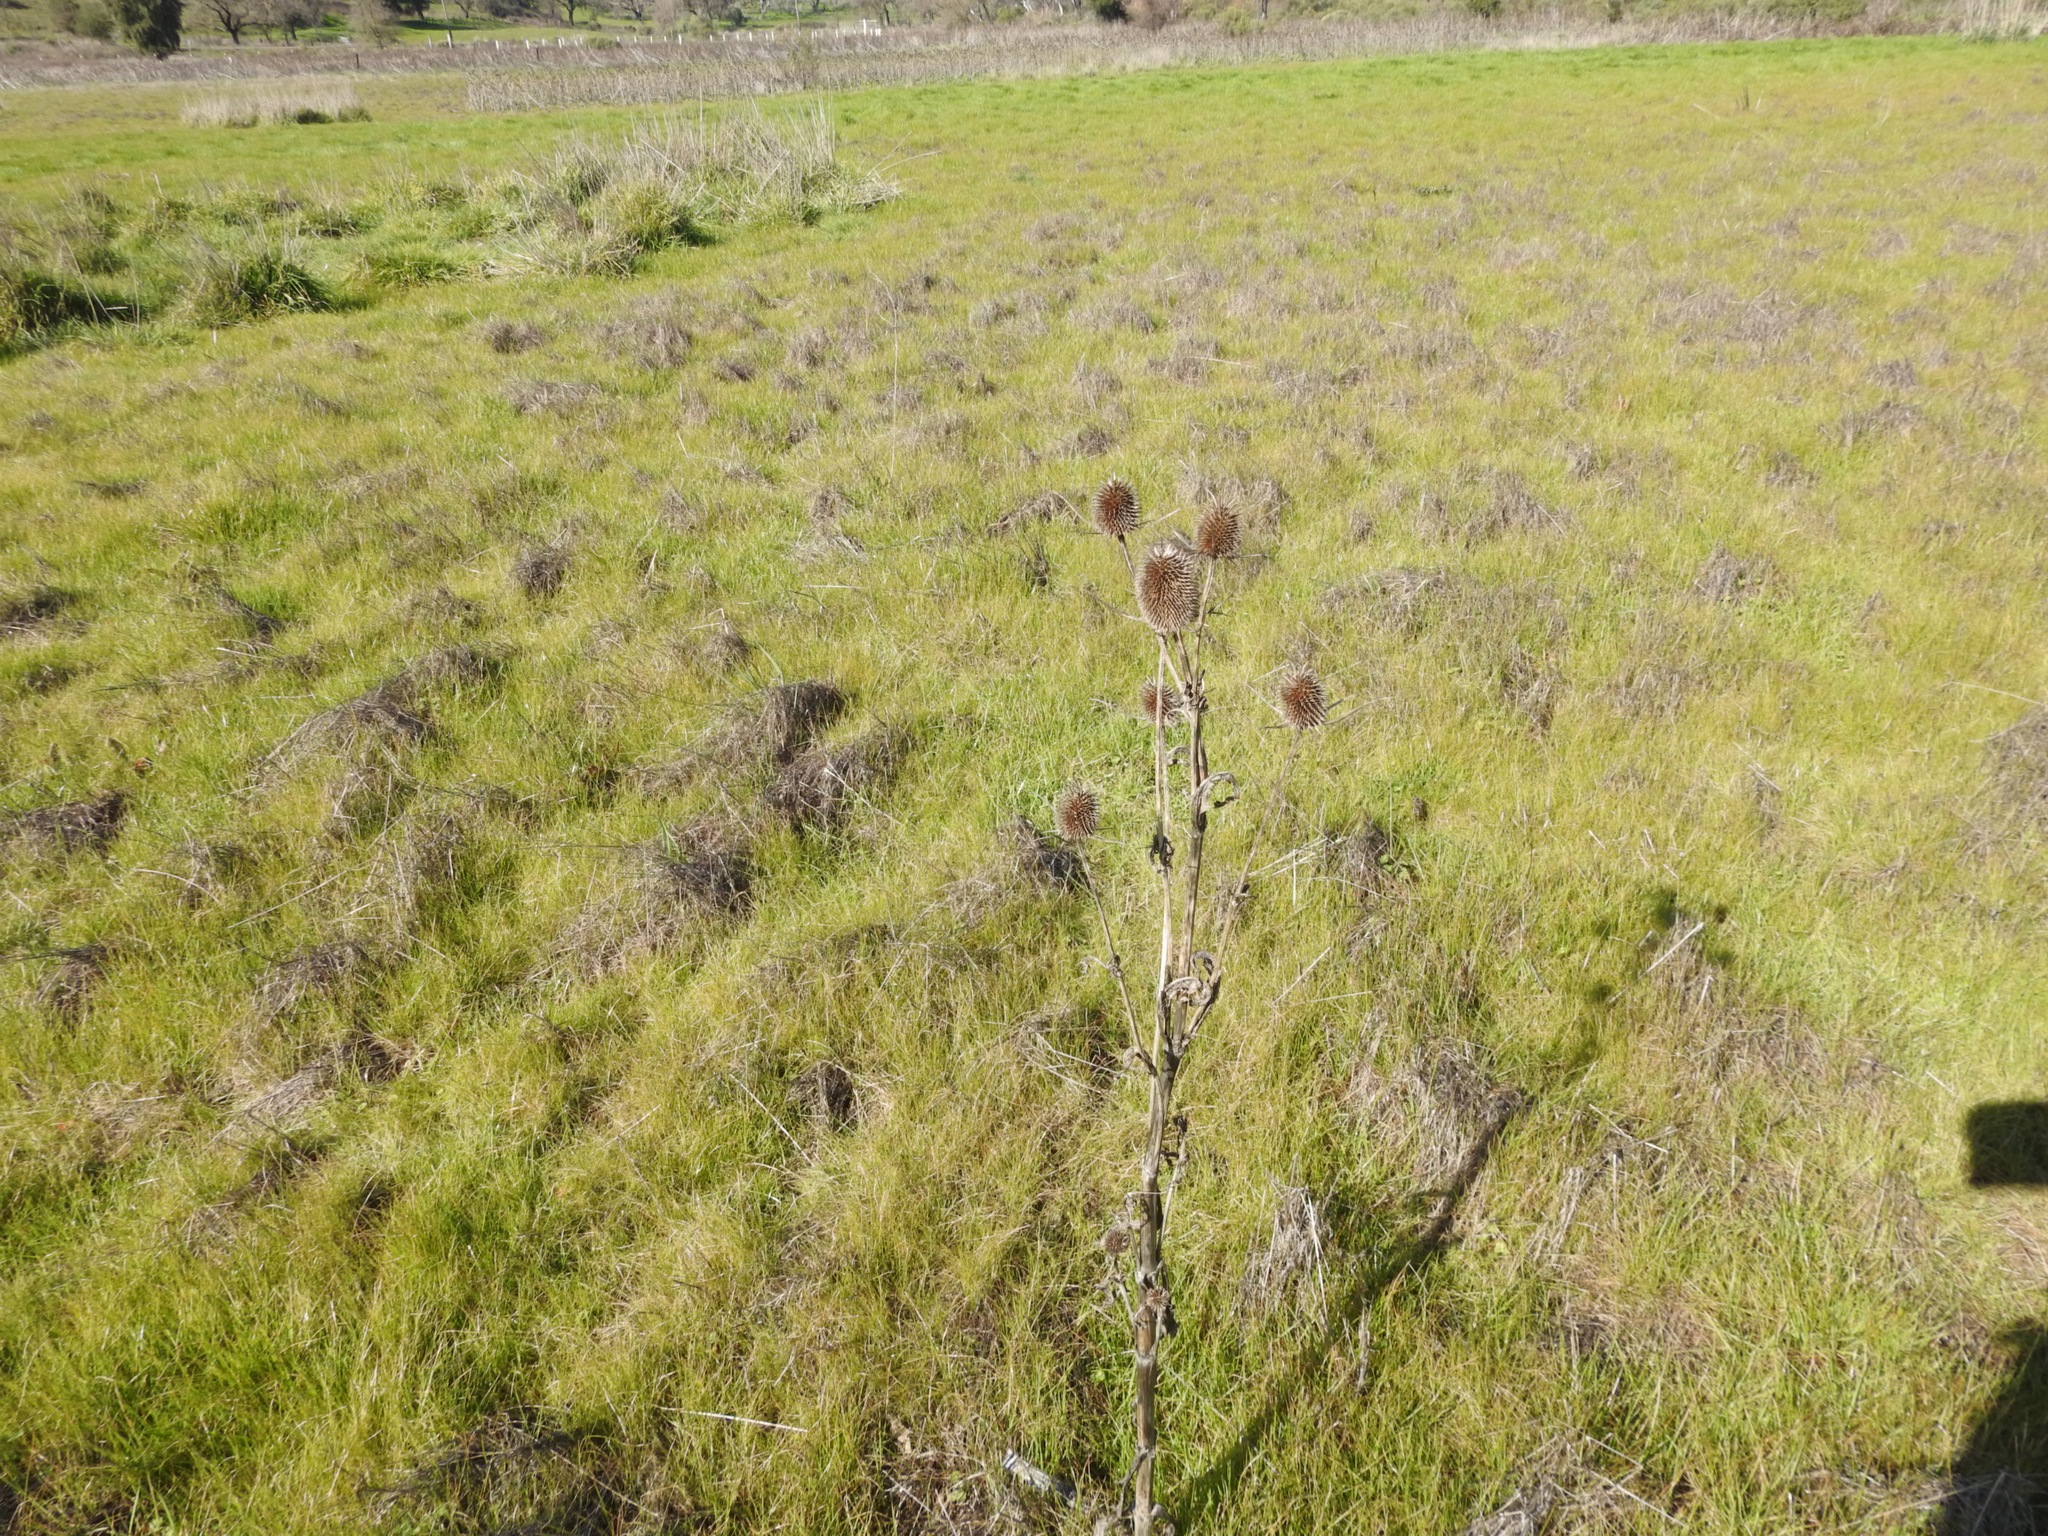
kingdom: Plantae
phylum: Tracheophyta
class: Magnoliopsida
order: Dipsacales
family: Caprifoliaceae
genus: Dipsacus
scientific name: Dipsacus sativus
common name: Fuller's teasel
